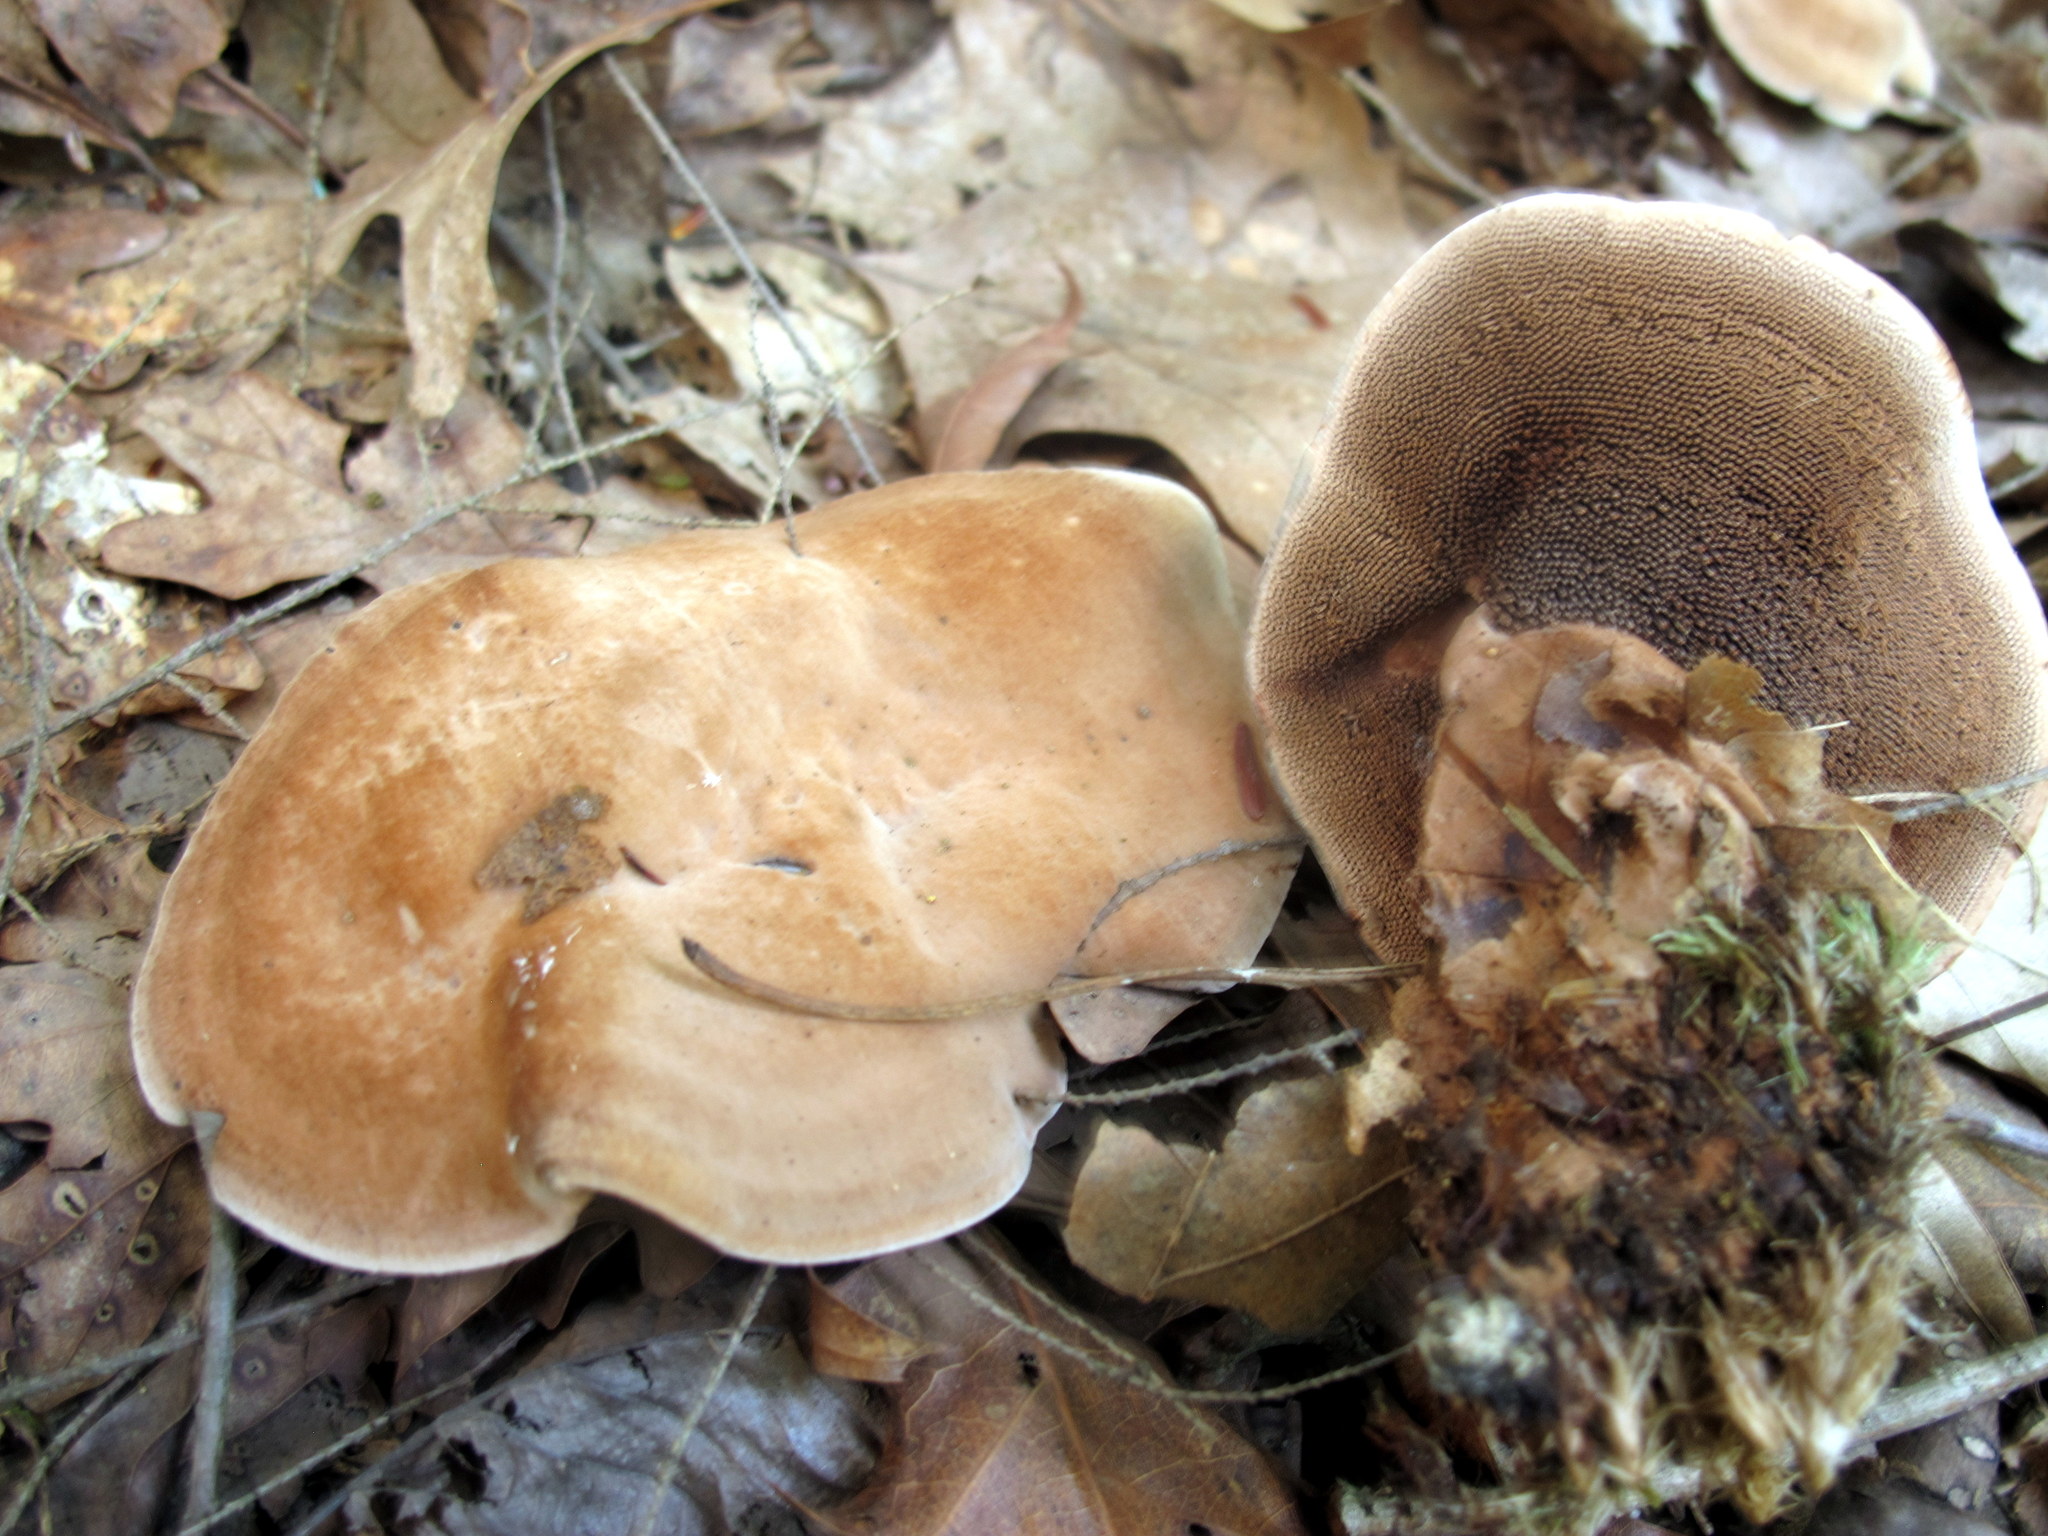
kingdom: Fungi
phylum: Basidiomycota
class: Agaricomycetes
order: Thelephorales
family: Bankeraceae
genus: Hydnellum
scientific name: Hydnellum spongiosipes
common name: Velvet tooth
